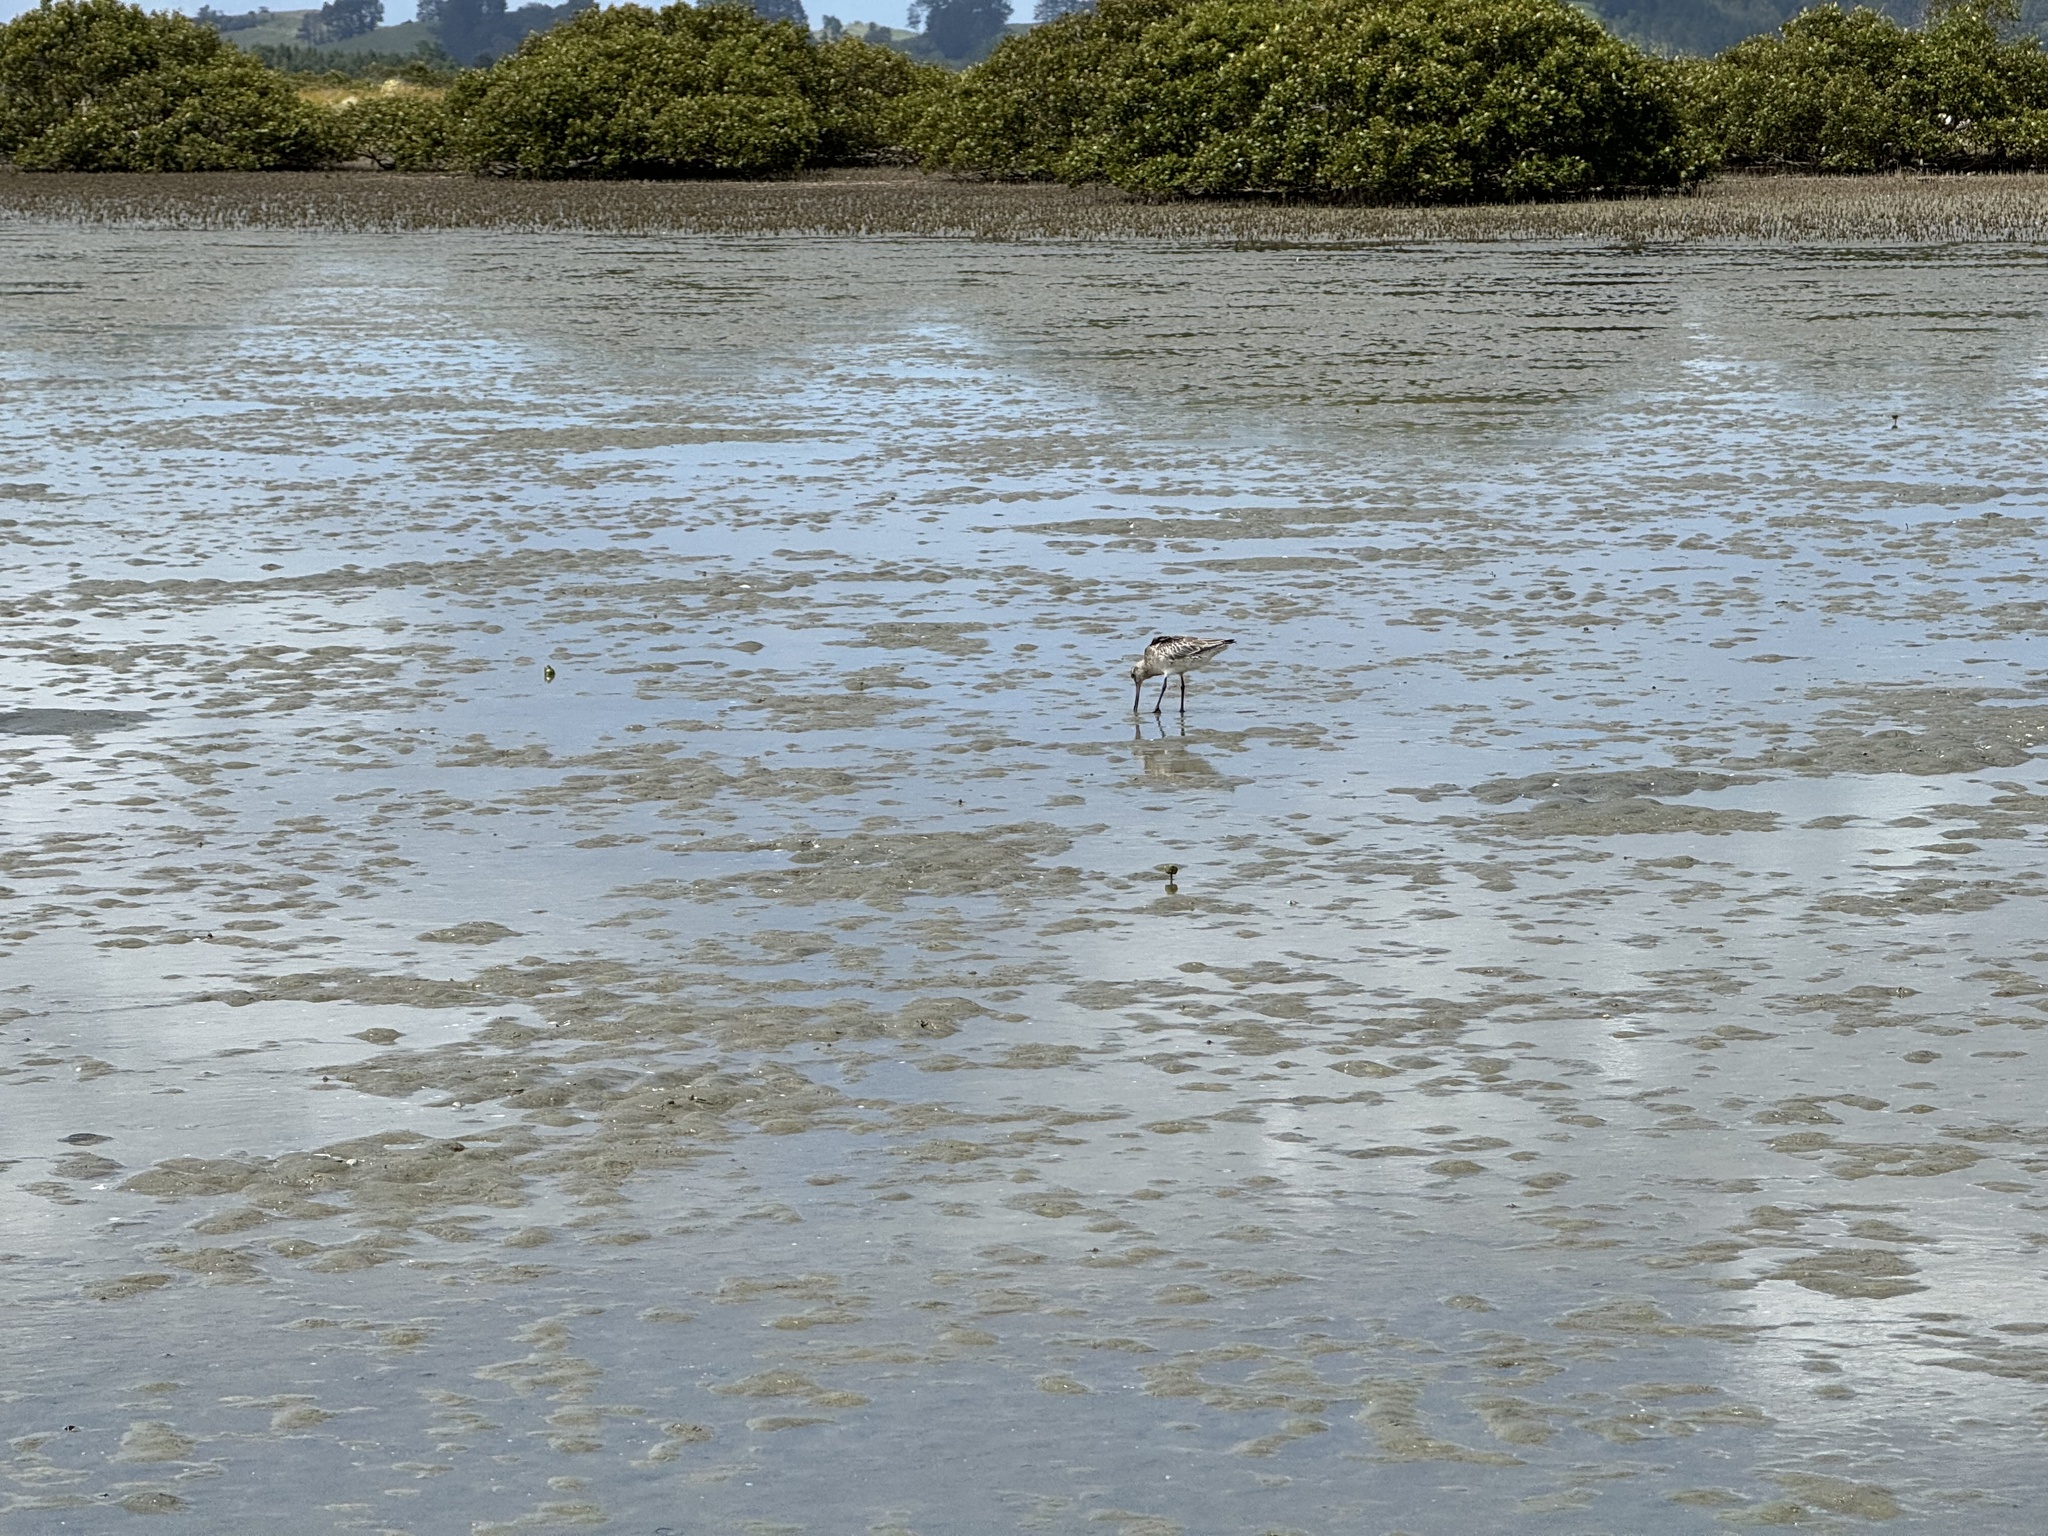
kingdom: Animalia
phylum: Chordata
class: Aves
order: Charadriiformes
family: Scolopacidae
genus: Limosa
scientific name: Limosa lapponica
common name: Bar-tailed godwit
